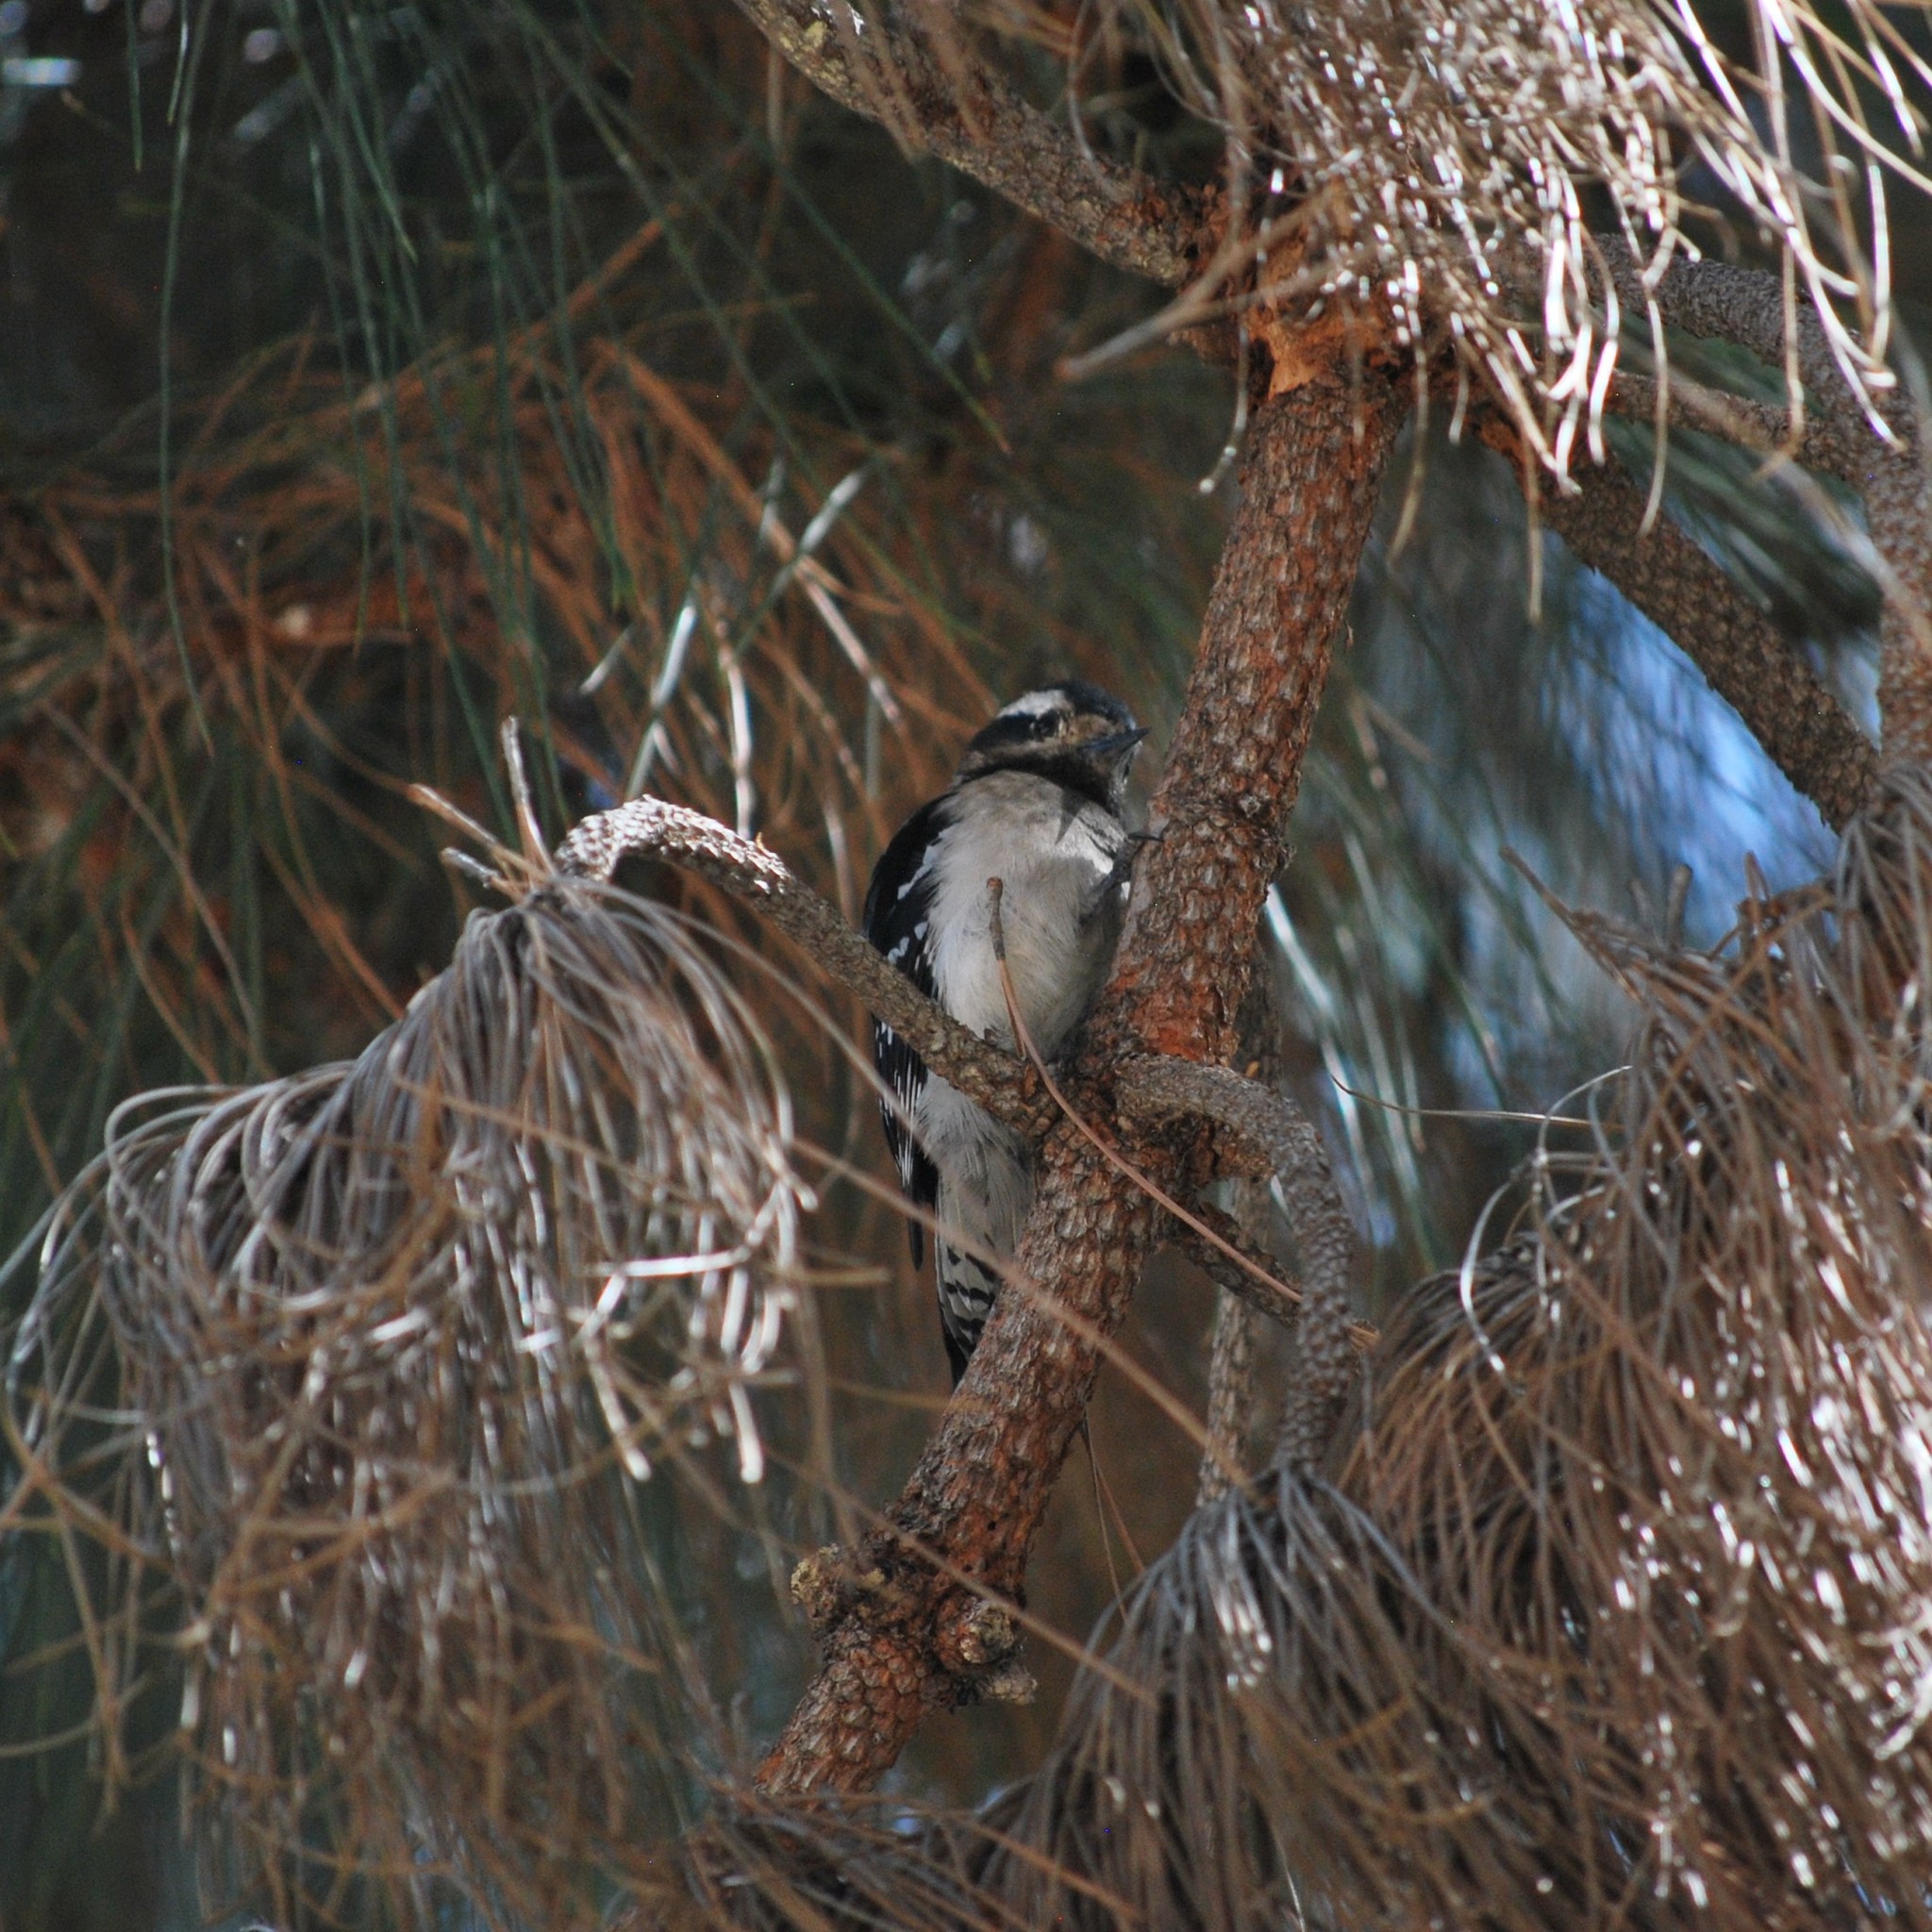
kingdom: Animalia
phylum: Chordata
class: Aves
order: Piciformes
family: Picidae
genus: Dryobates
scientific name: Dryobates pubescens
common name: Downy woodpecker
